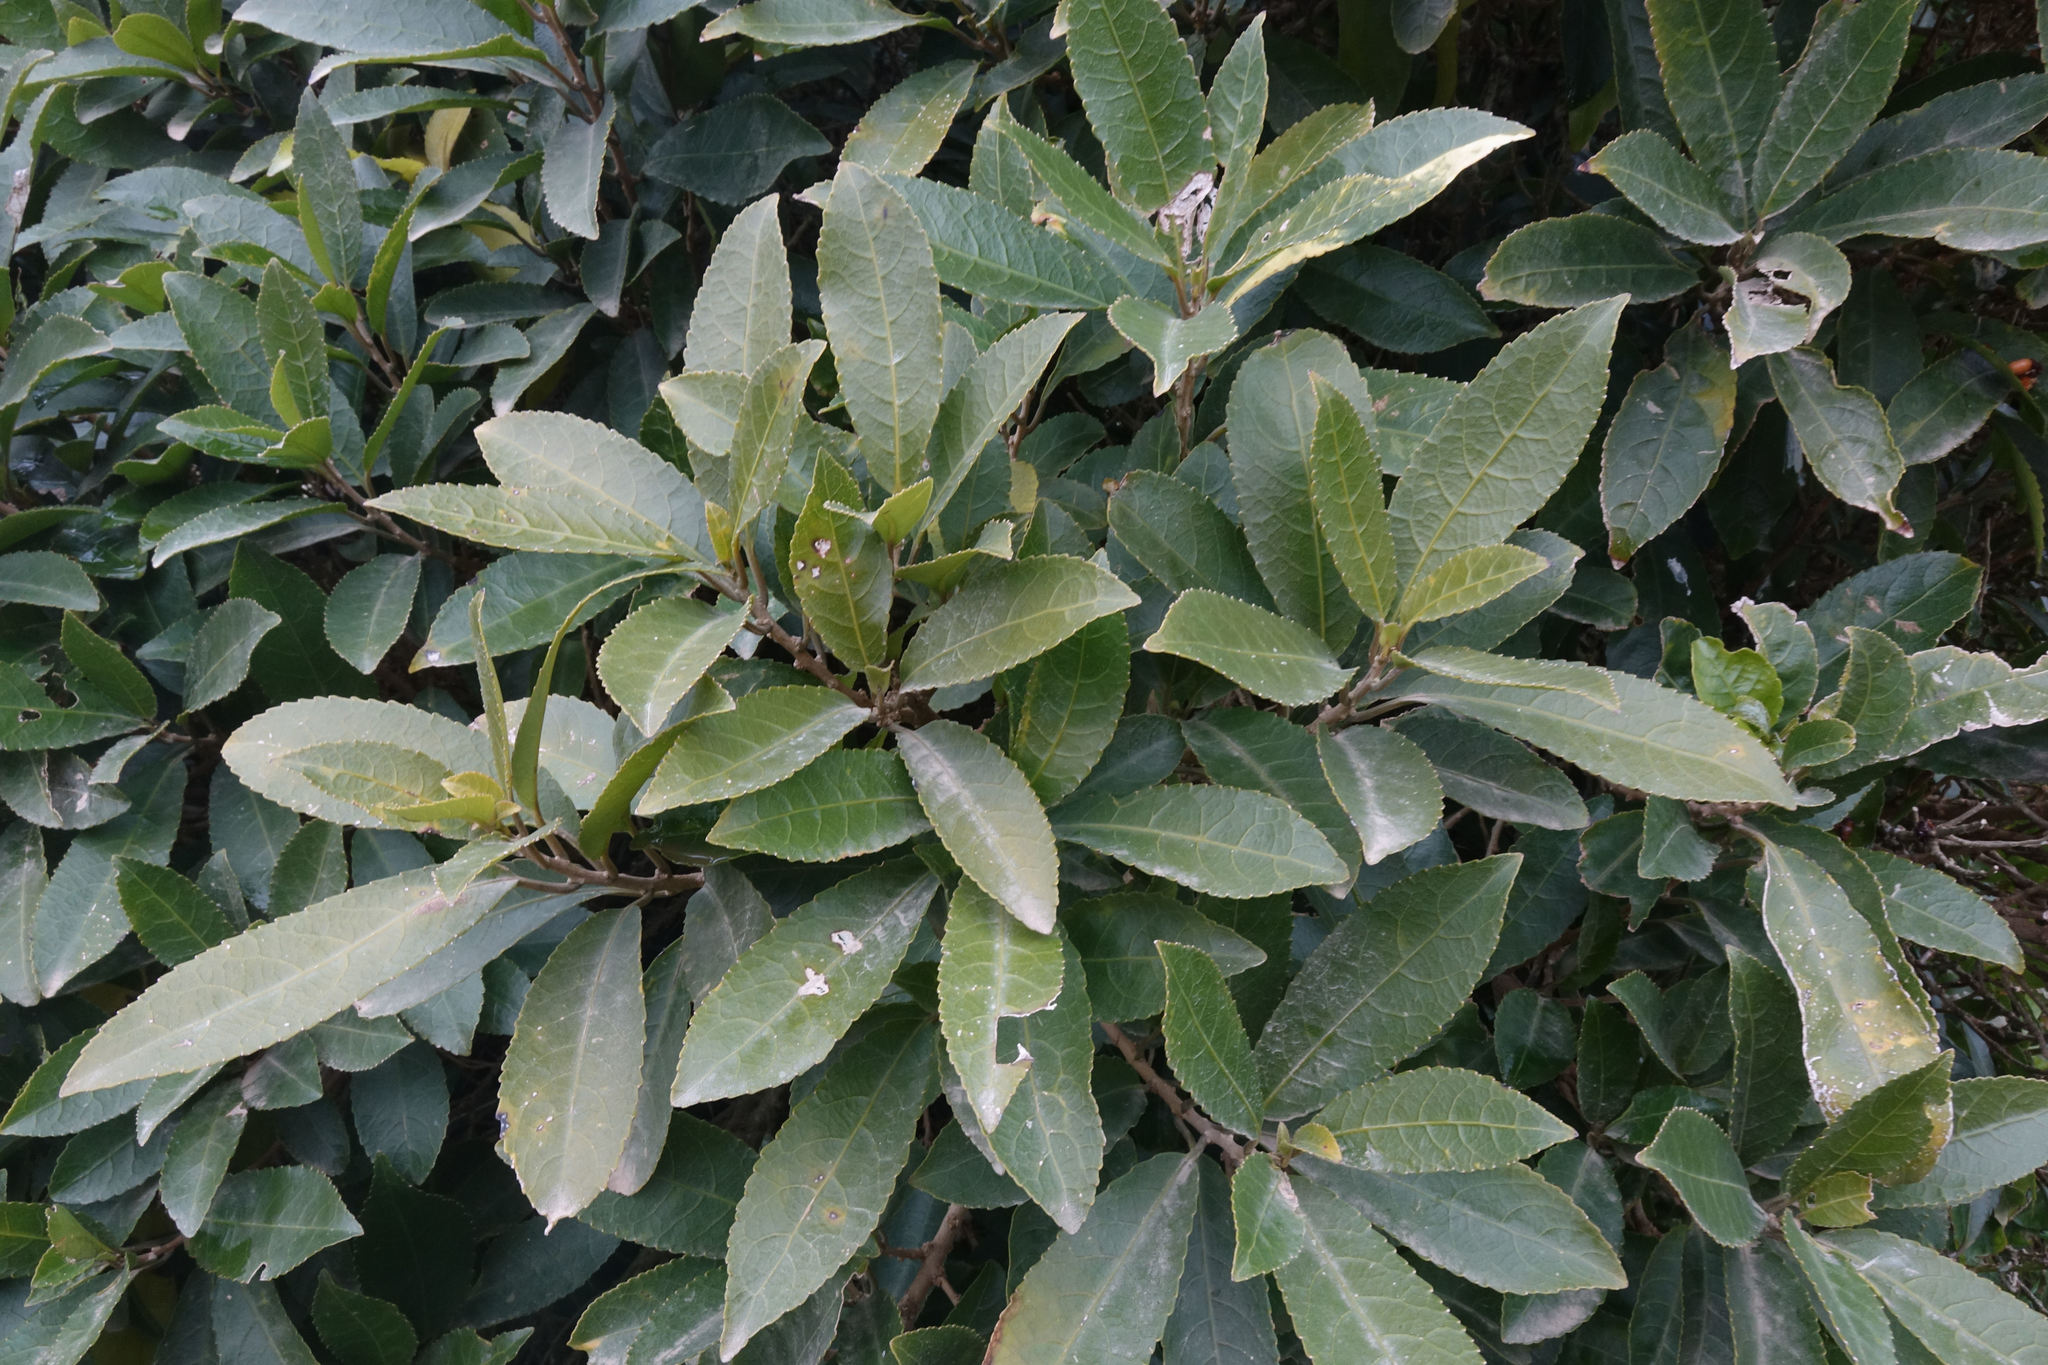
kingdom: Plantae
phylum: Tracheophyta
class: Magnoliopsida
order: Malpighiales
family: Violaceae
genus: Melicytus
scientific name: Melicytus ramiflorus
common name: Mahoe
